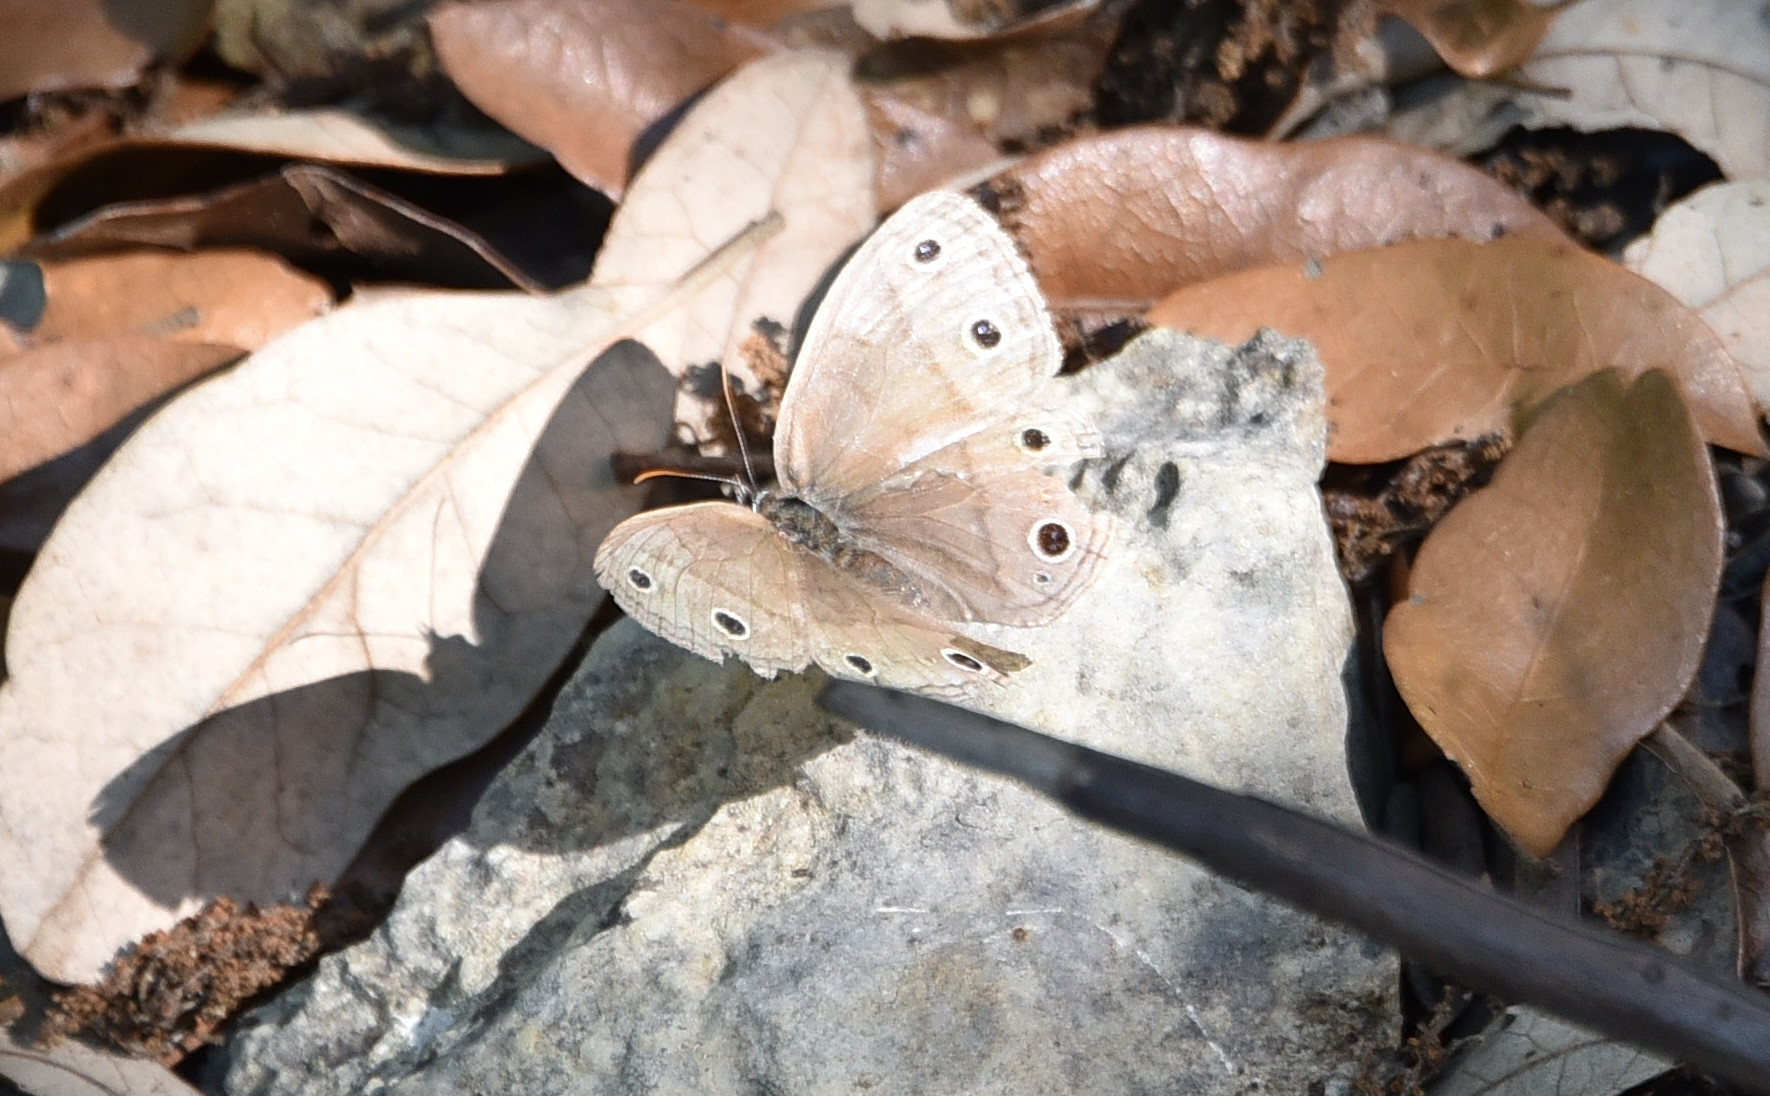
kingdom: Animalia
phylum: Arthropoda
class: Insecta
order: Lepidoptera
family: Nymphalidae
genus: Euptychia
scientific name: Euptychia cymela
